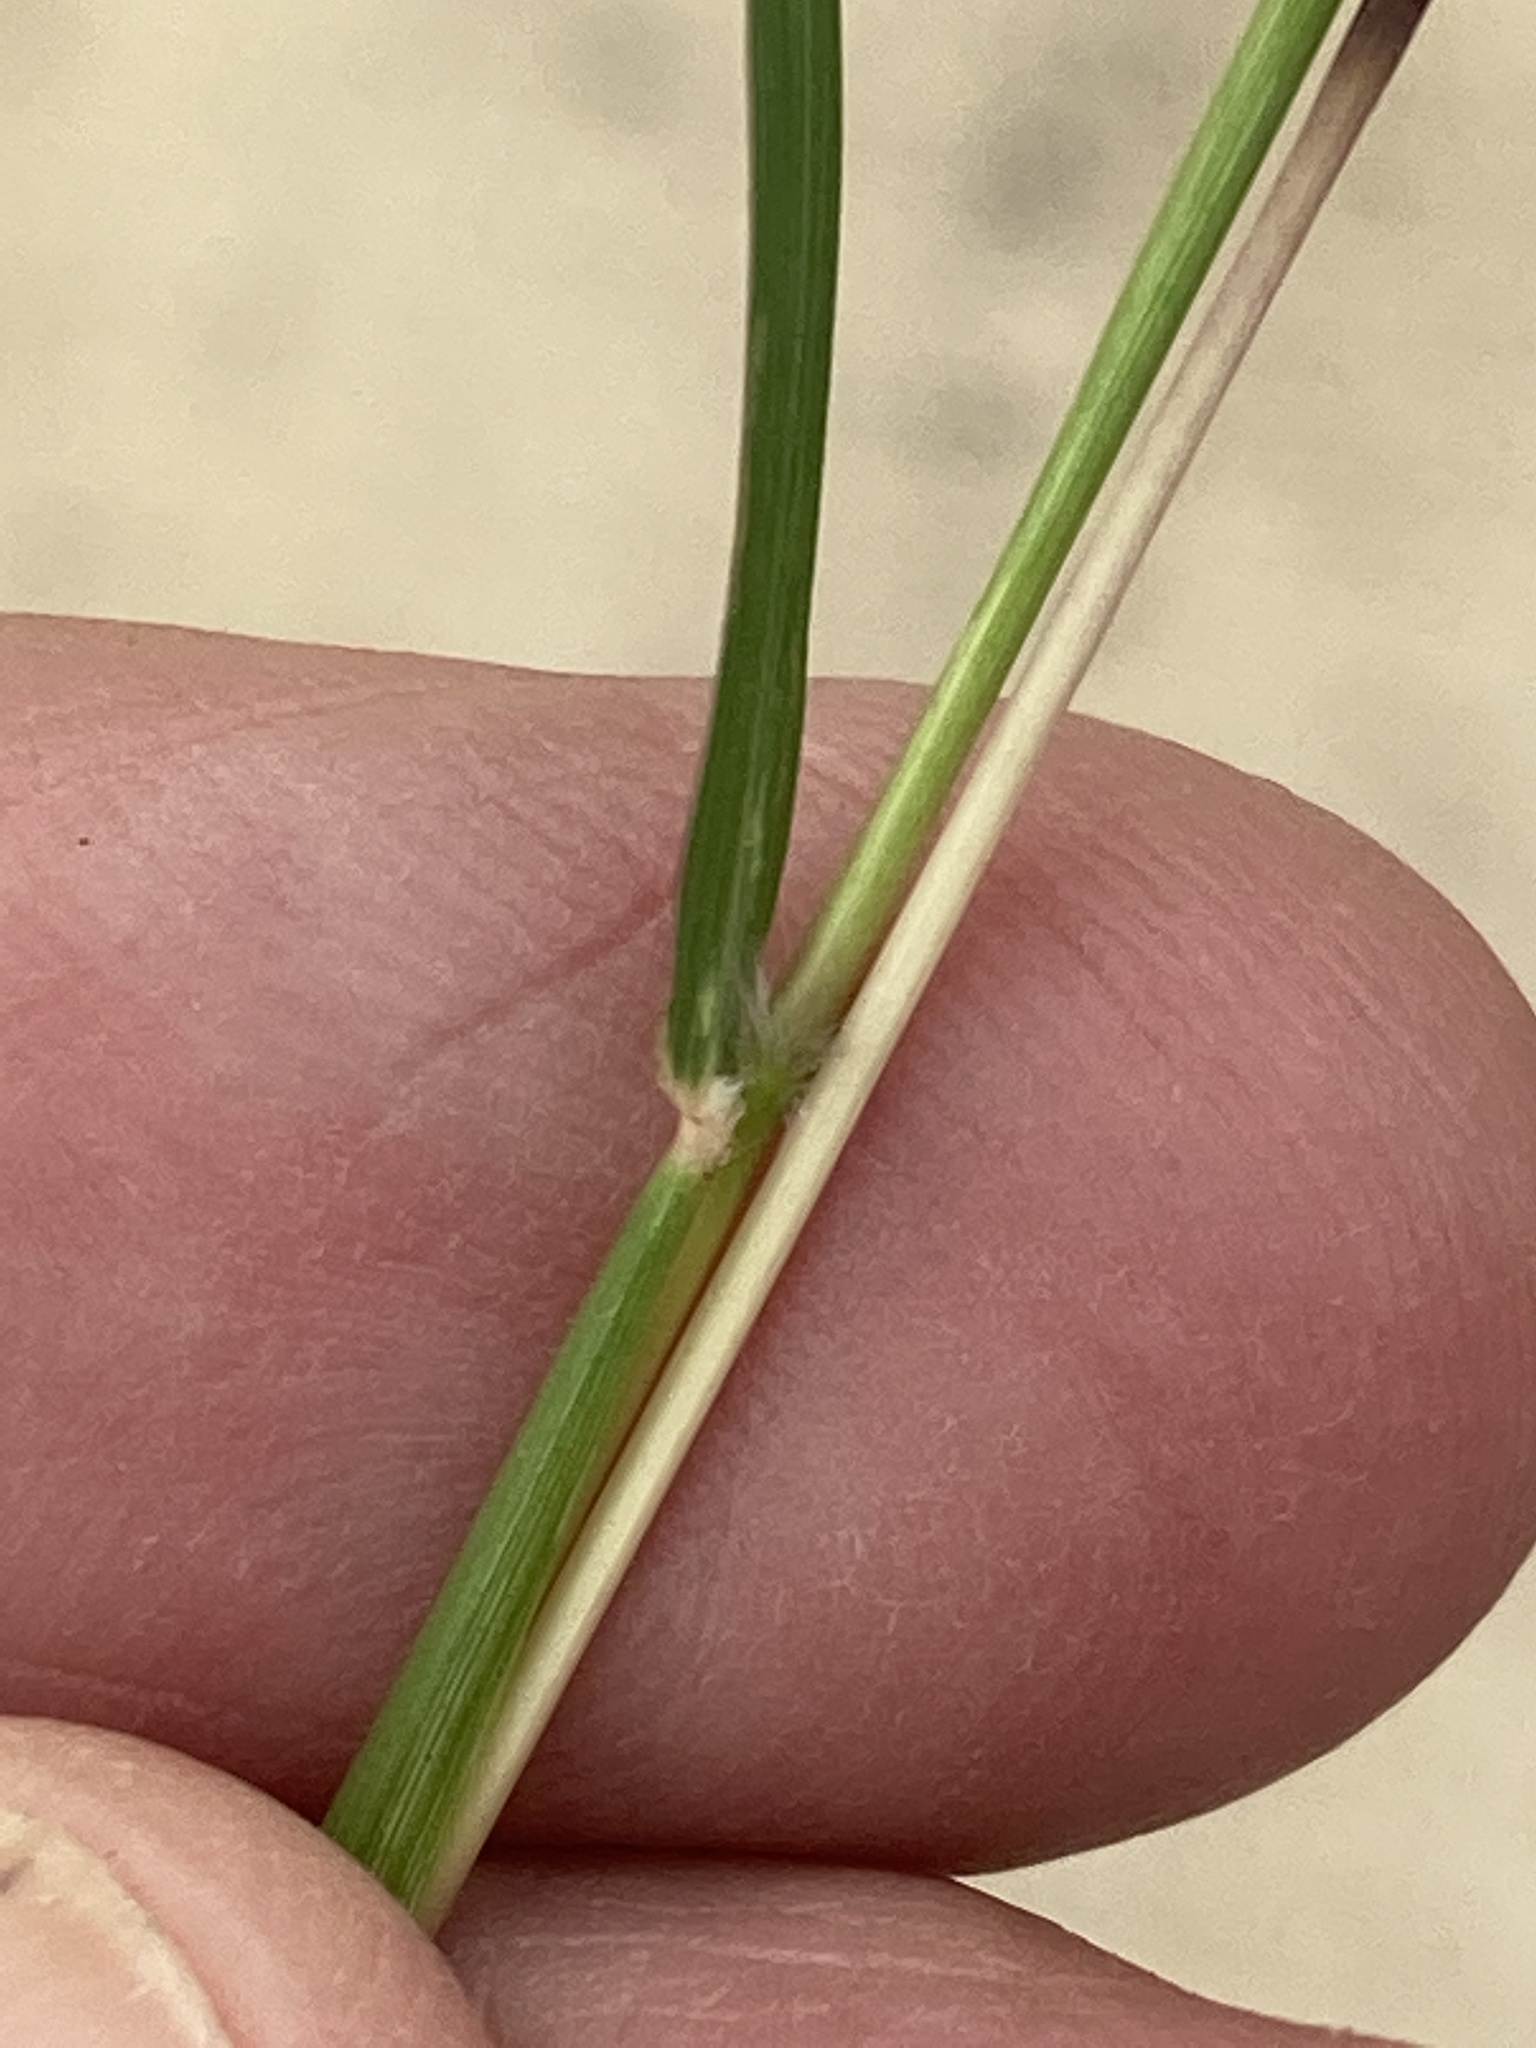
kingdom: Plantae
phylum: Tracheophyta
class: Liliopsida
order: Poales
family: Poaceae
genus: Dichanthium
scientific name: Dichanthium sericeum
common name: Silky bluestem
